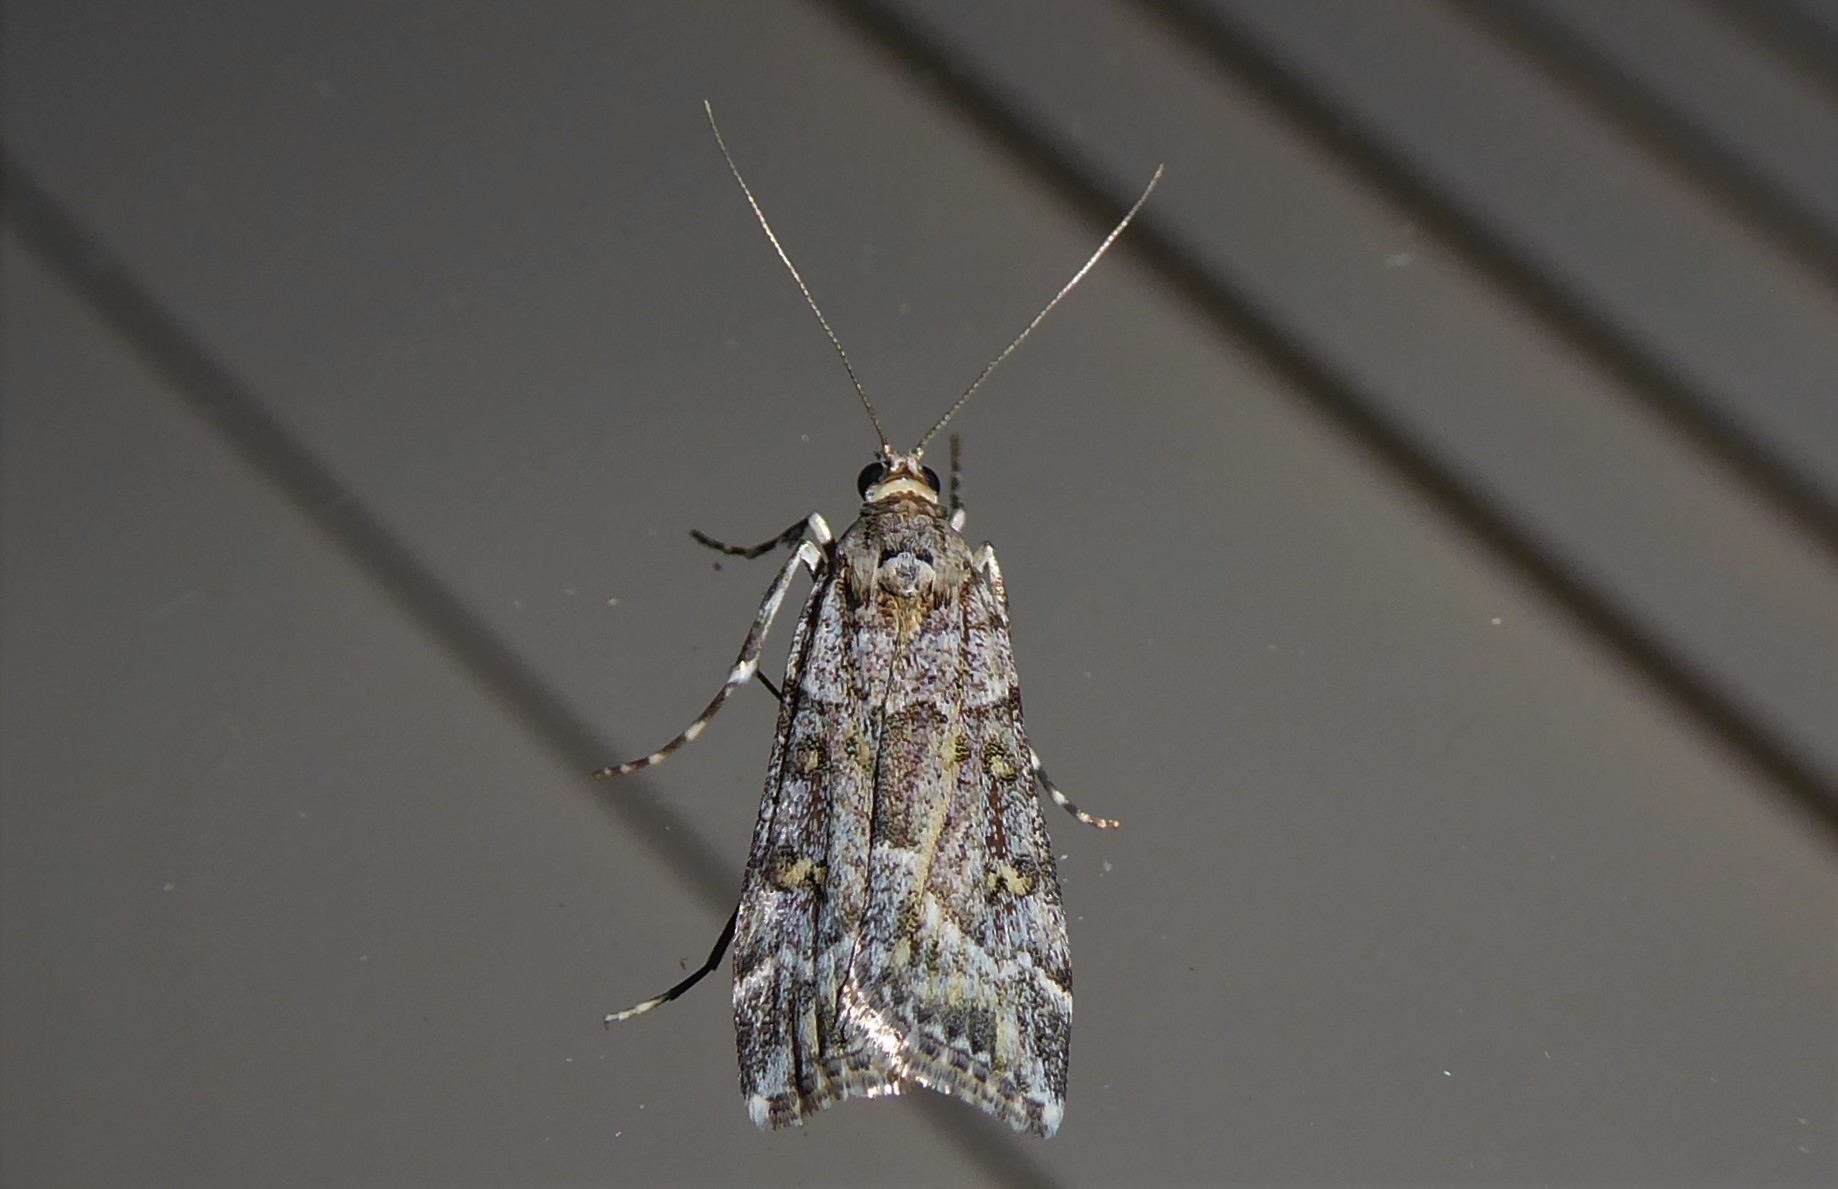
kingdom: Animalia
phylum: Arthropoda
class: Insecta
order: Lepidoptera
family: Crambidae
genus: Eudonia
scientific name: Eudonia diphtheralis
